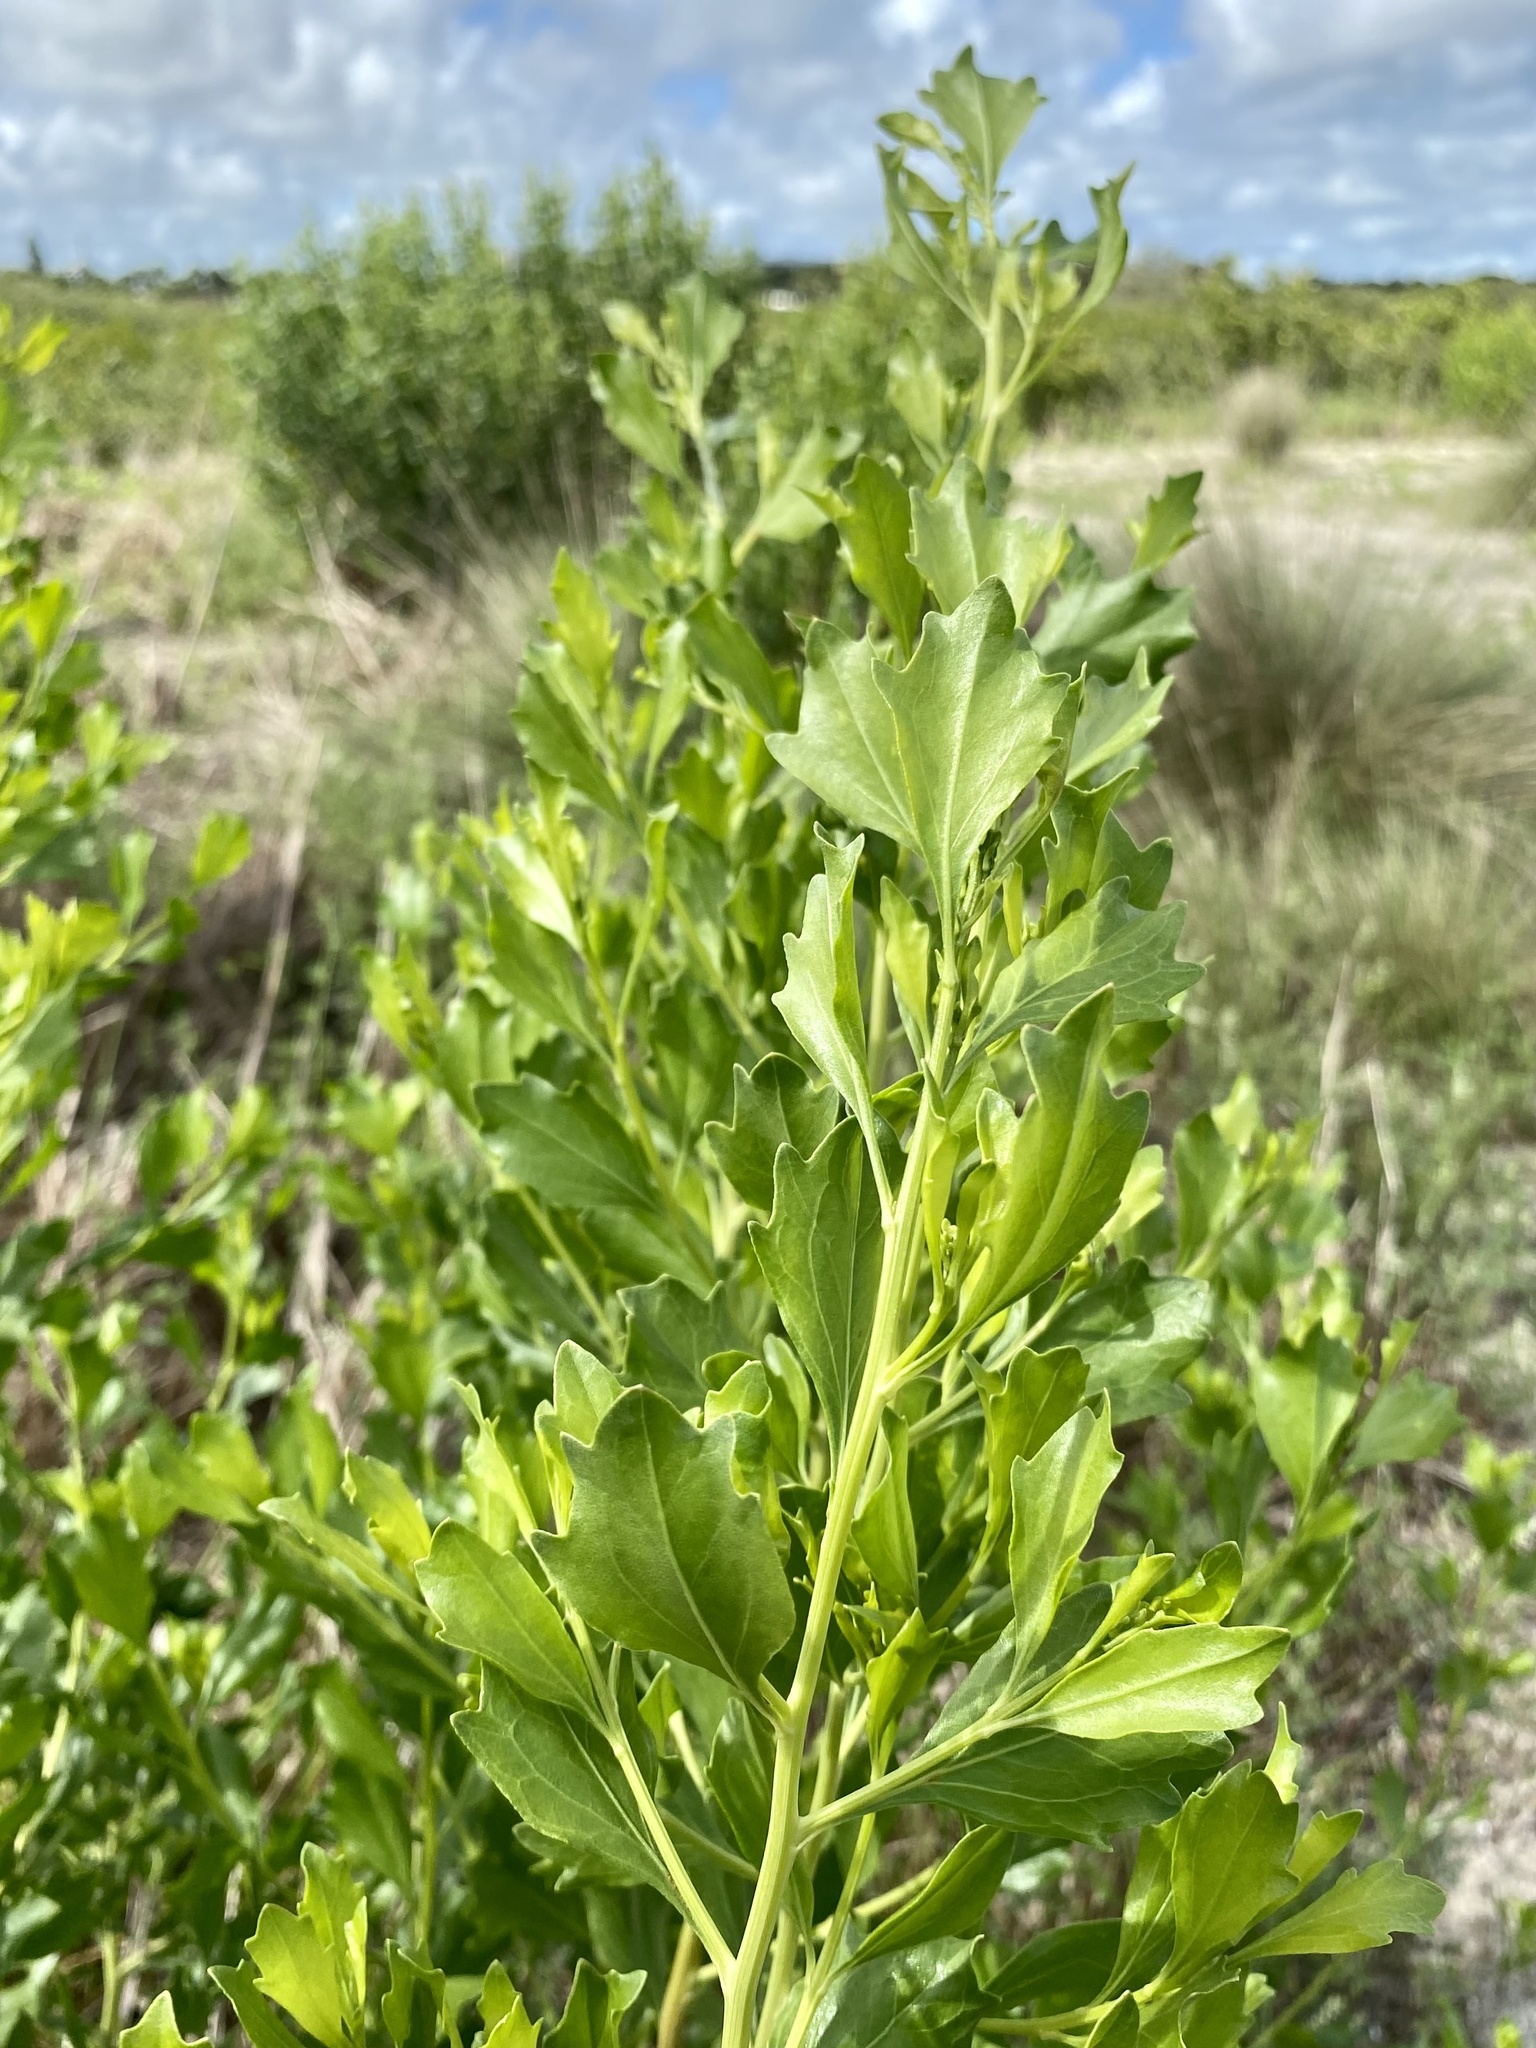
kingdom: Plantae
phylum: Tracheophyta
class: Magnoliopsida
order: Asterales
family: Asteraceae
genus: Baccharis
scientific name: Baccharis halimifolia
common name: Eastern baccharis
